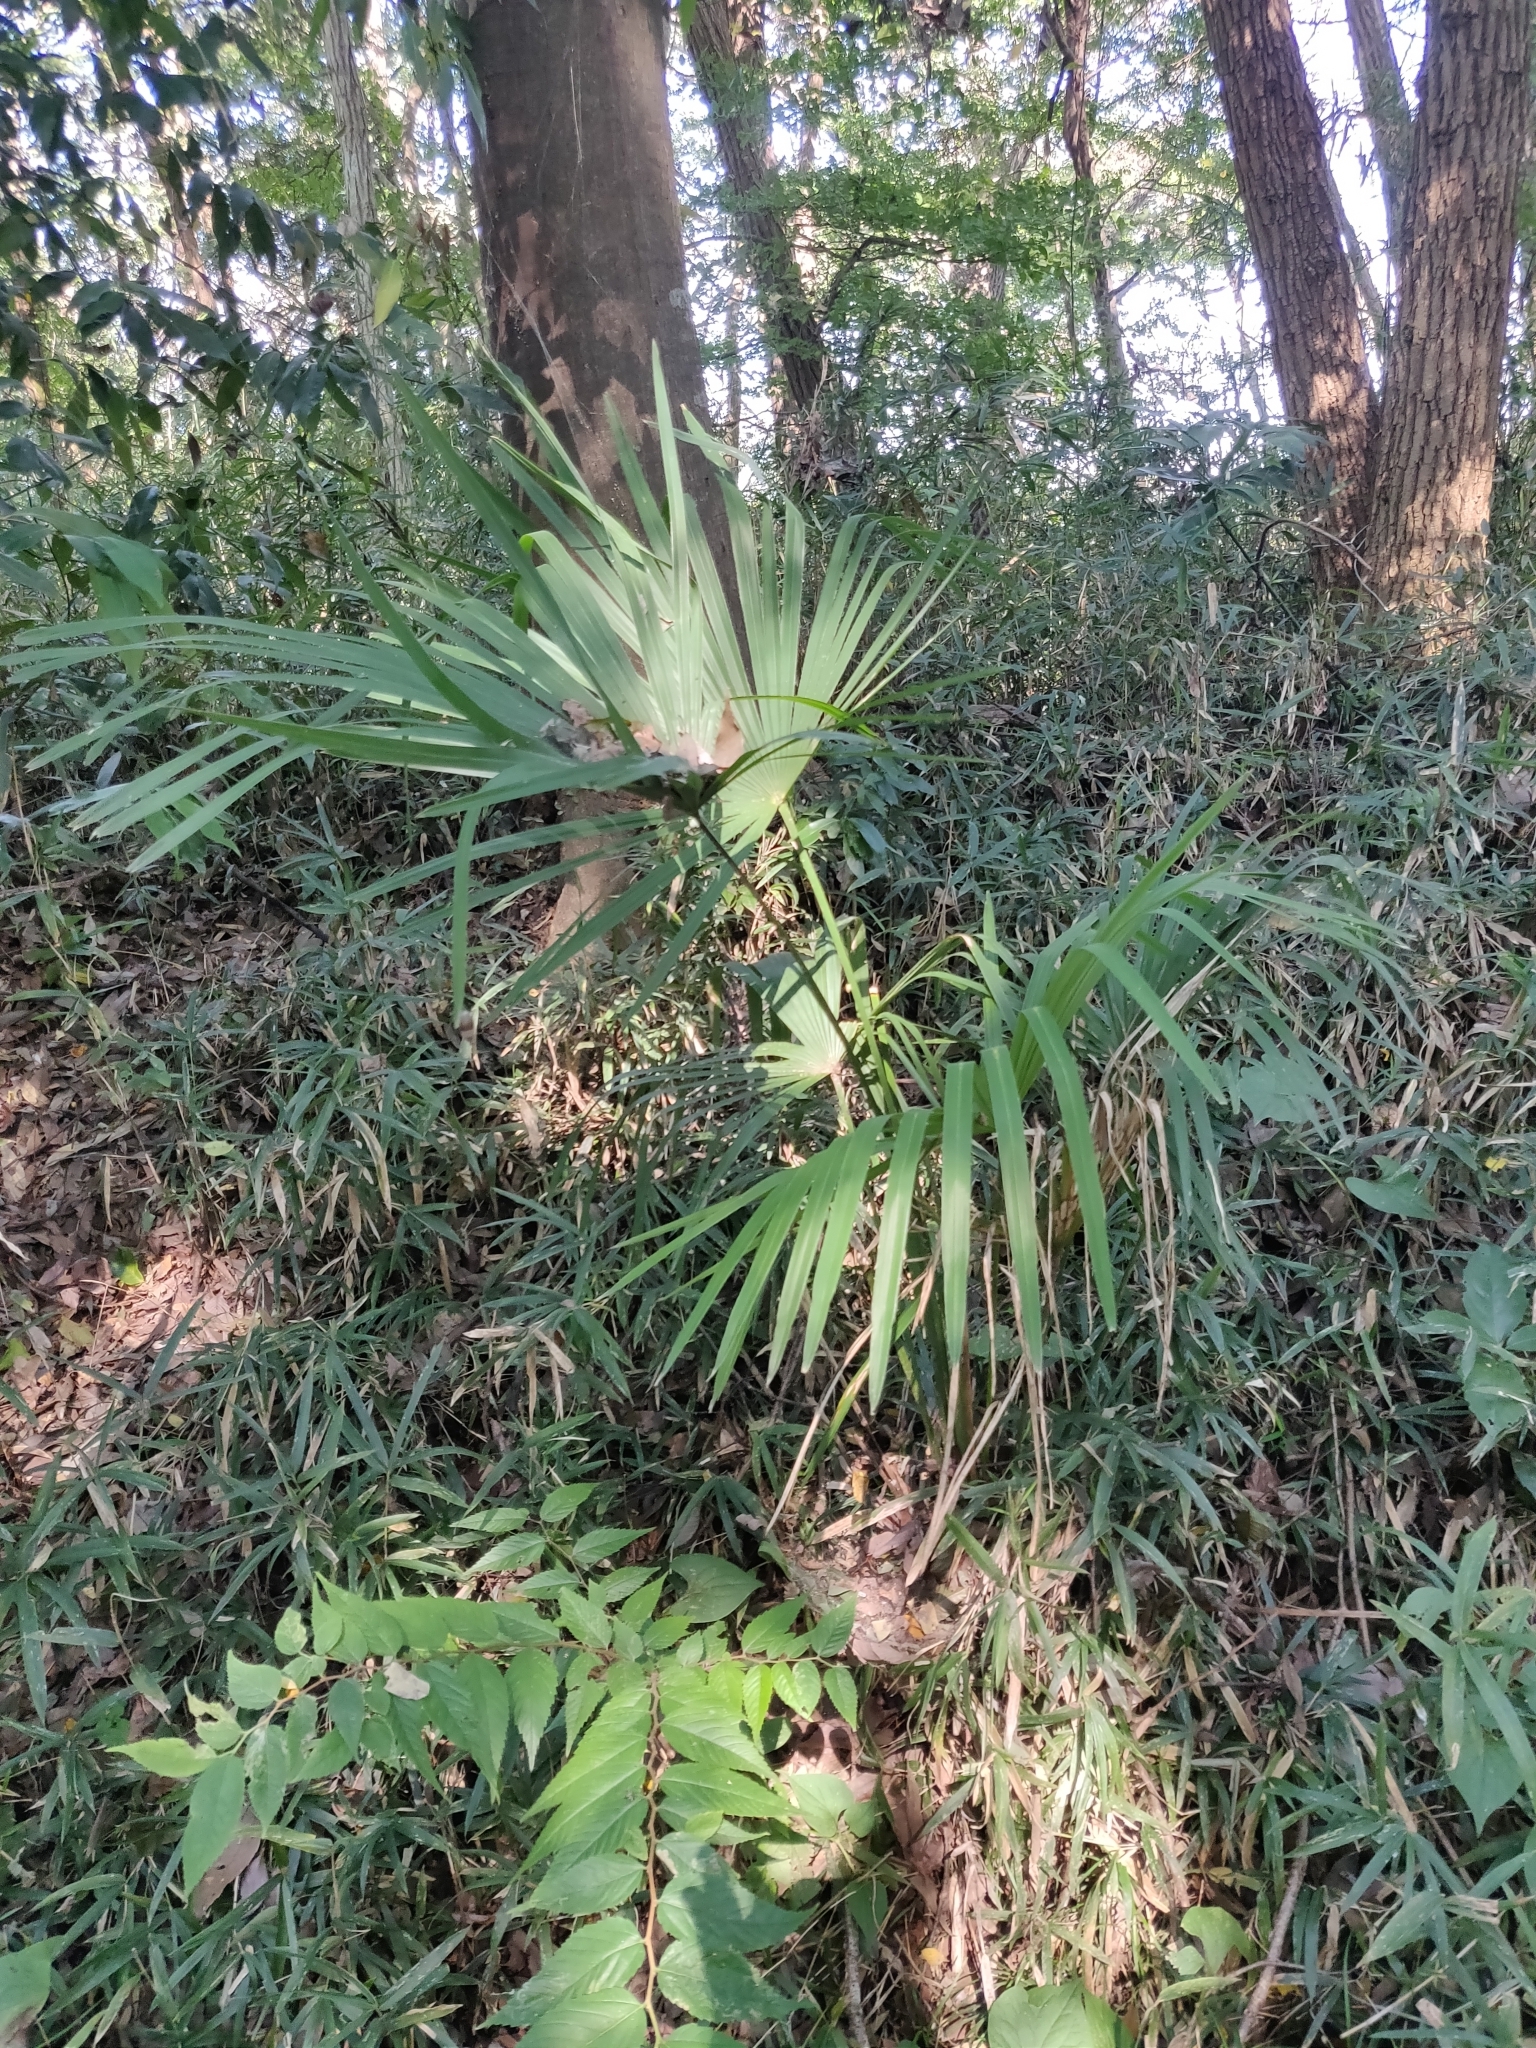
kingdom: Plantae
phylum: Tracheophyta
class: Liliopsida
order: Arecales
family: Arecaceae
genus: Trachycarpus
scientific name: Trachycarpus fortunei
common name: Chusan palm
